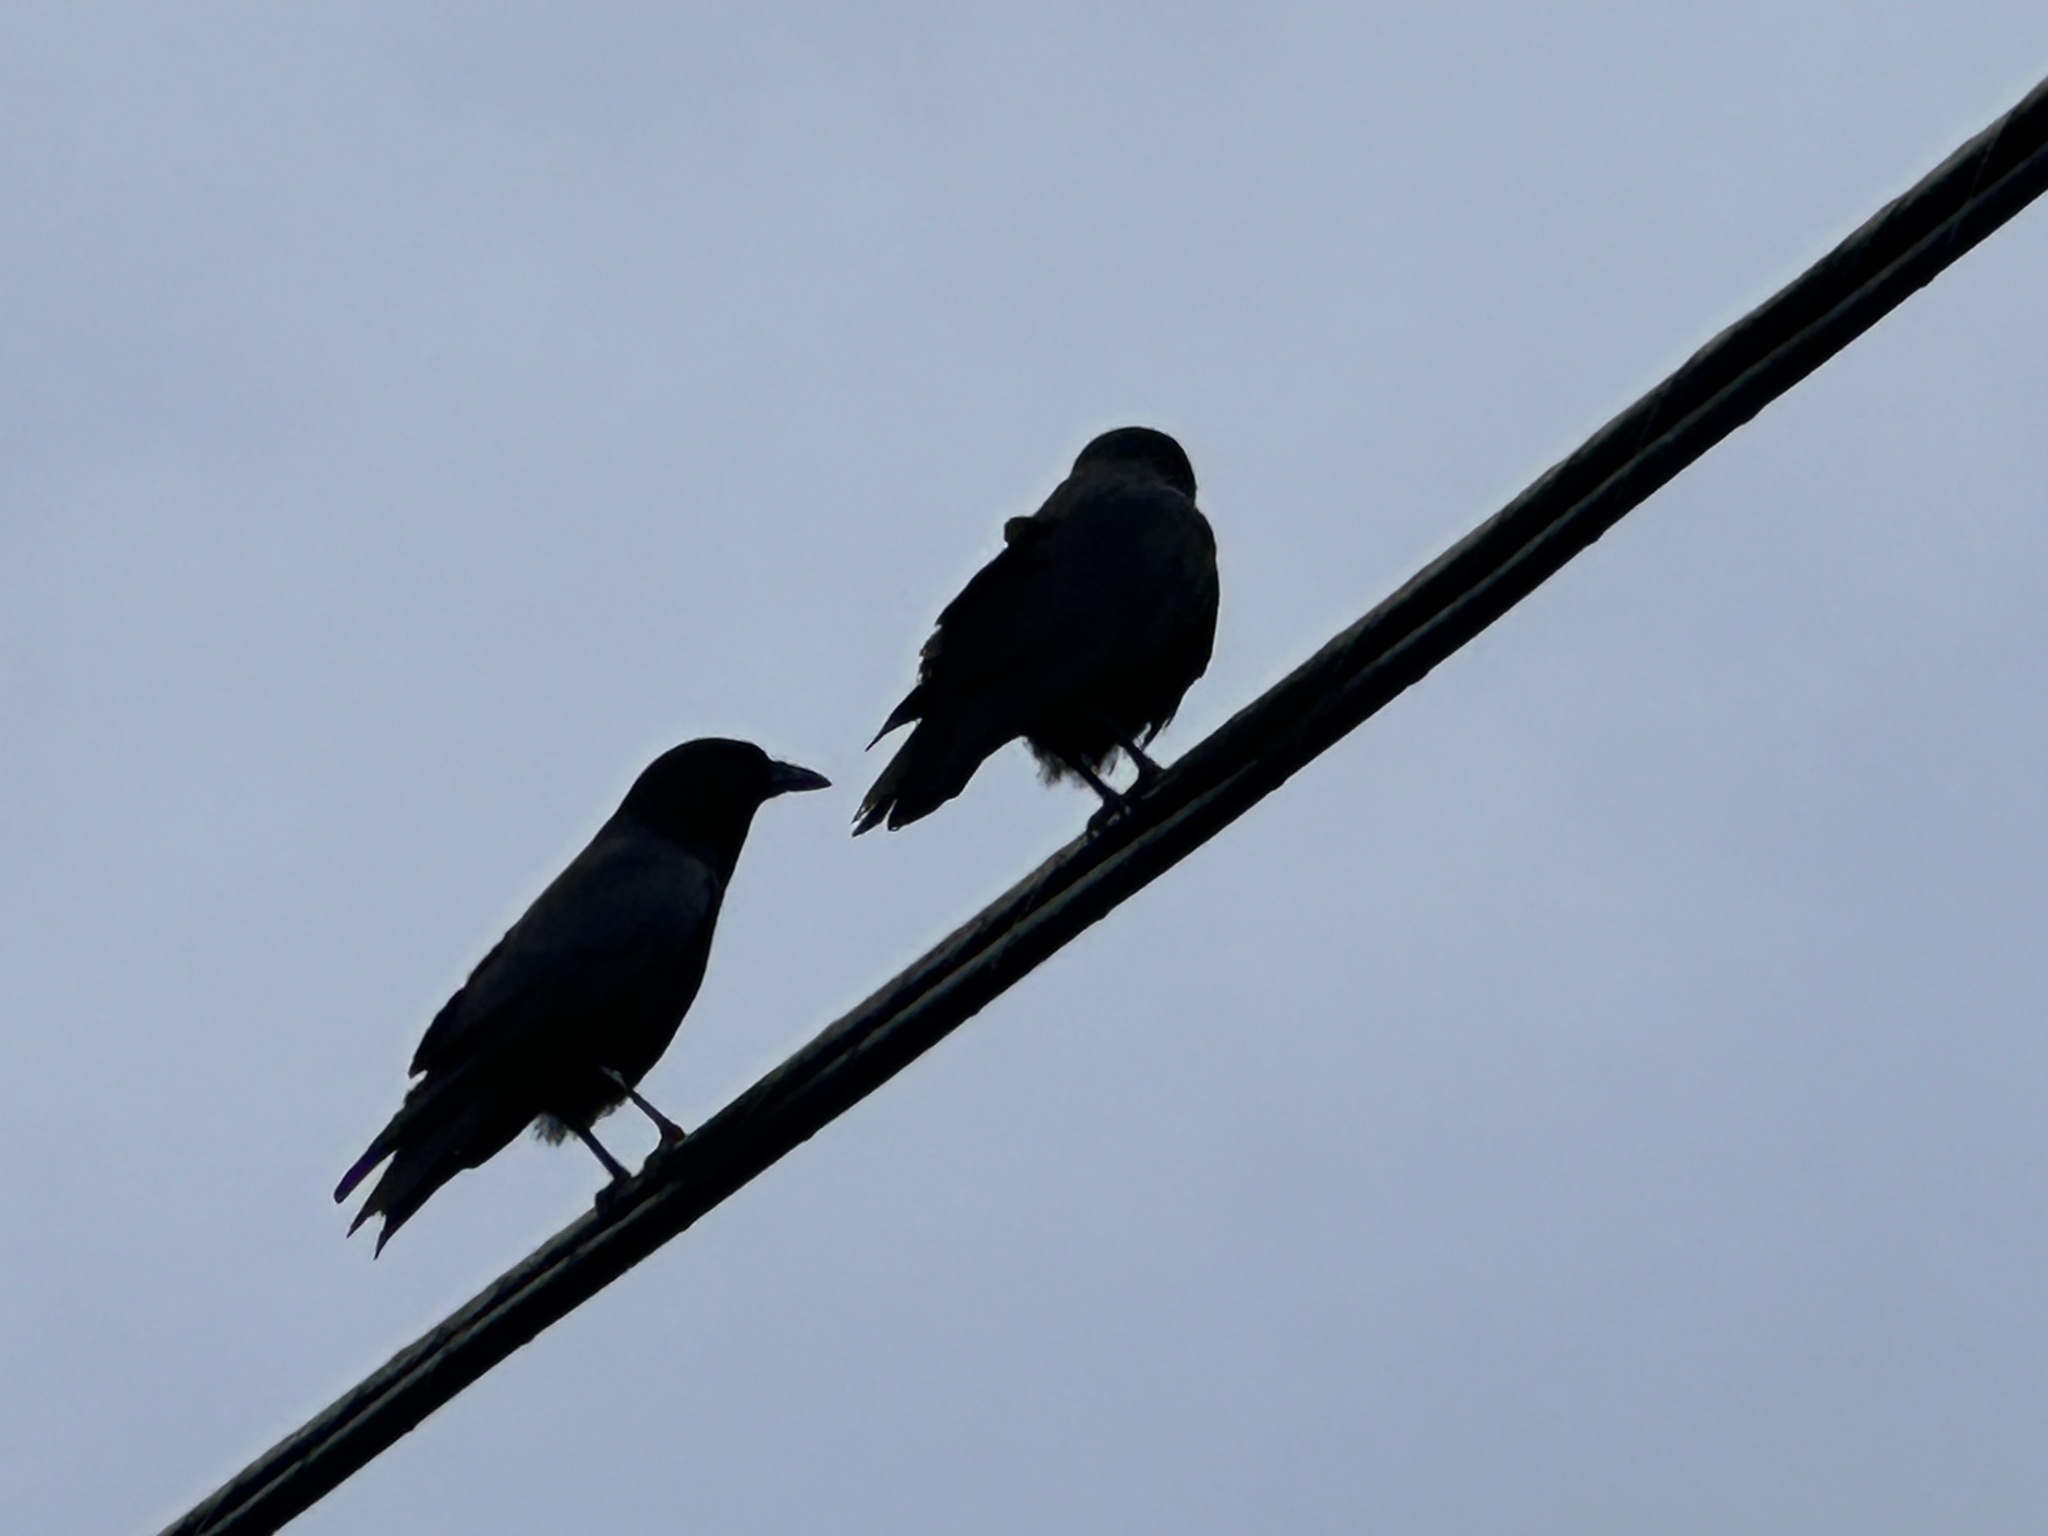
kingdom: Animalia
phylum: Chordata
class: Aves
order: Passeriformes
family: Corvidae
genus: Corvus
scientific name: Corvus brachyrhynchos
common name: American crow
